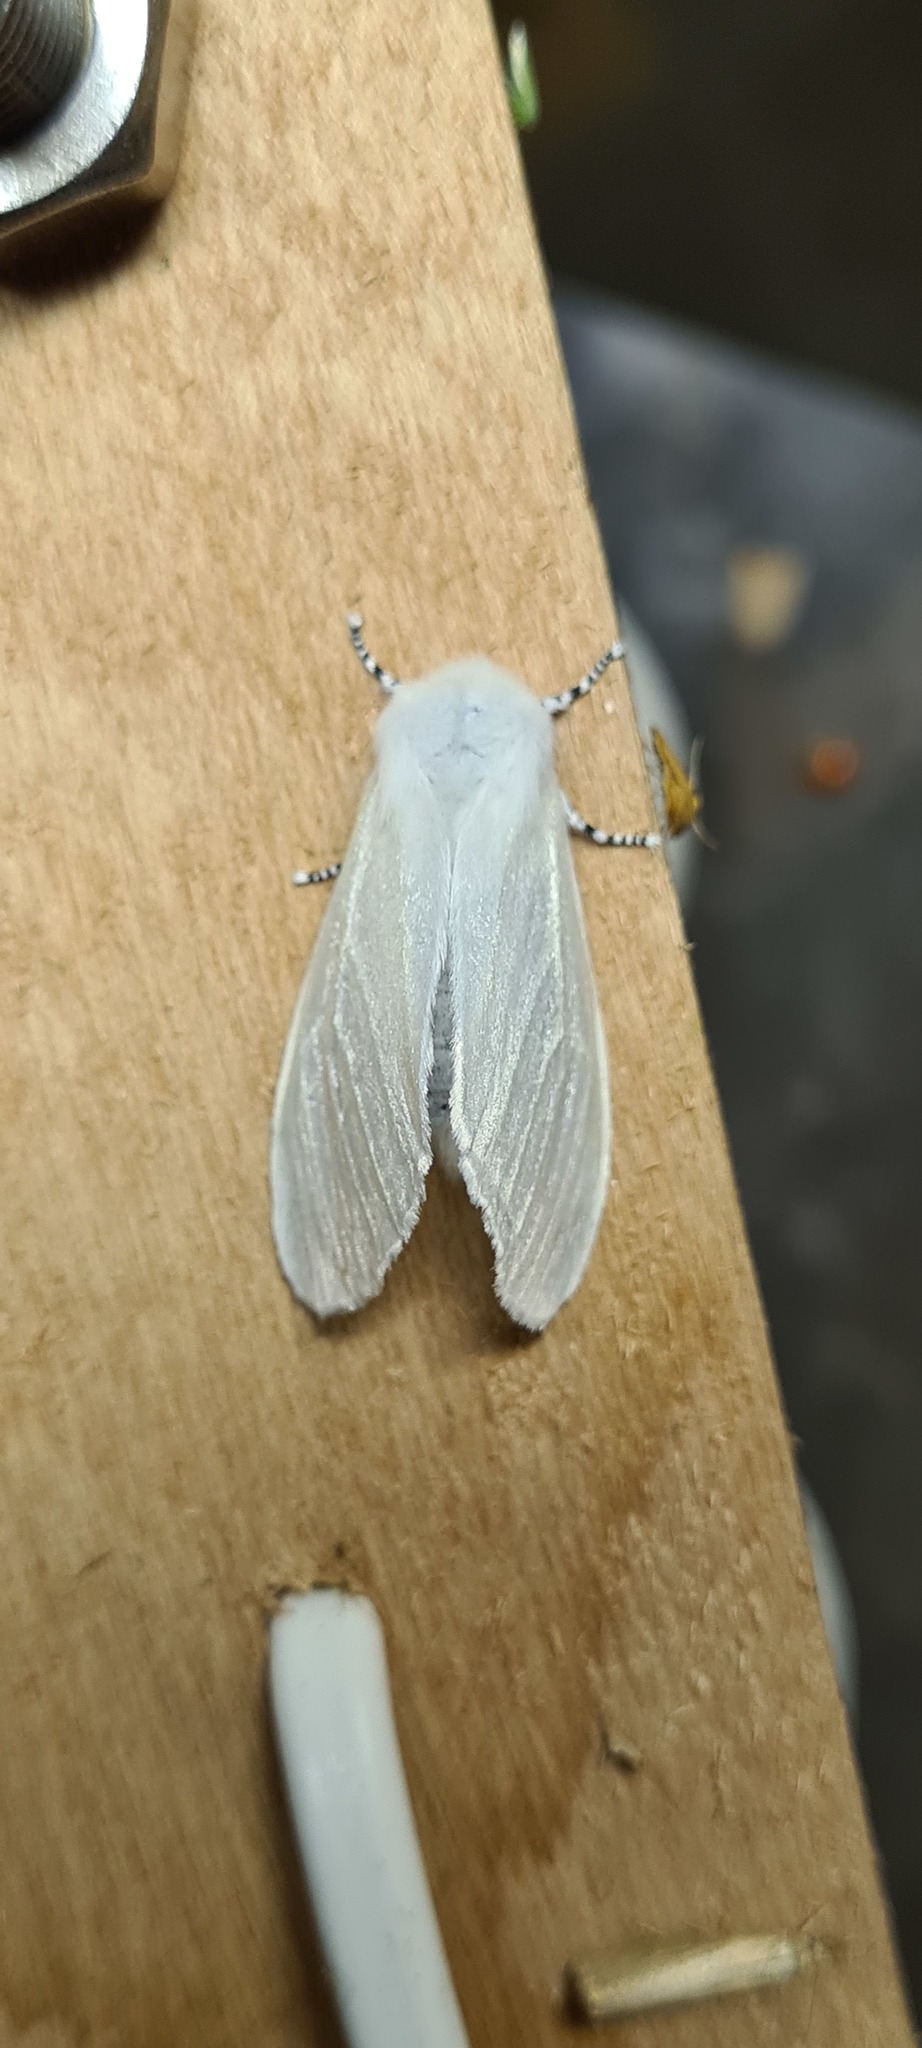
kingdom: Animalia
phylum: Arthropoda
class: Insecta
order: Lepidoptera
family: Erebidae
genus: Leucoma
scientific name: Leucoma salicis
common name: White satin moth
